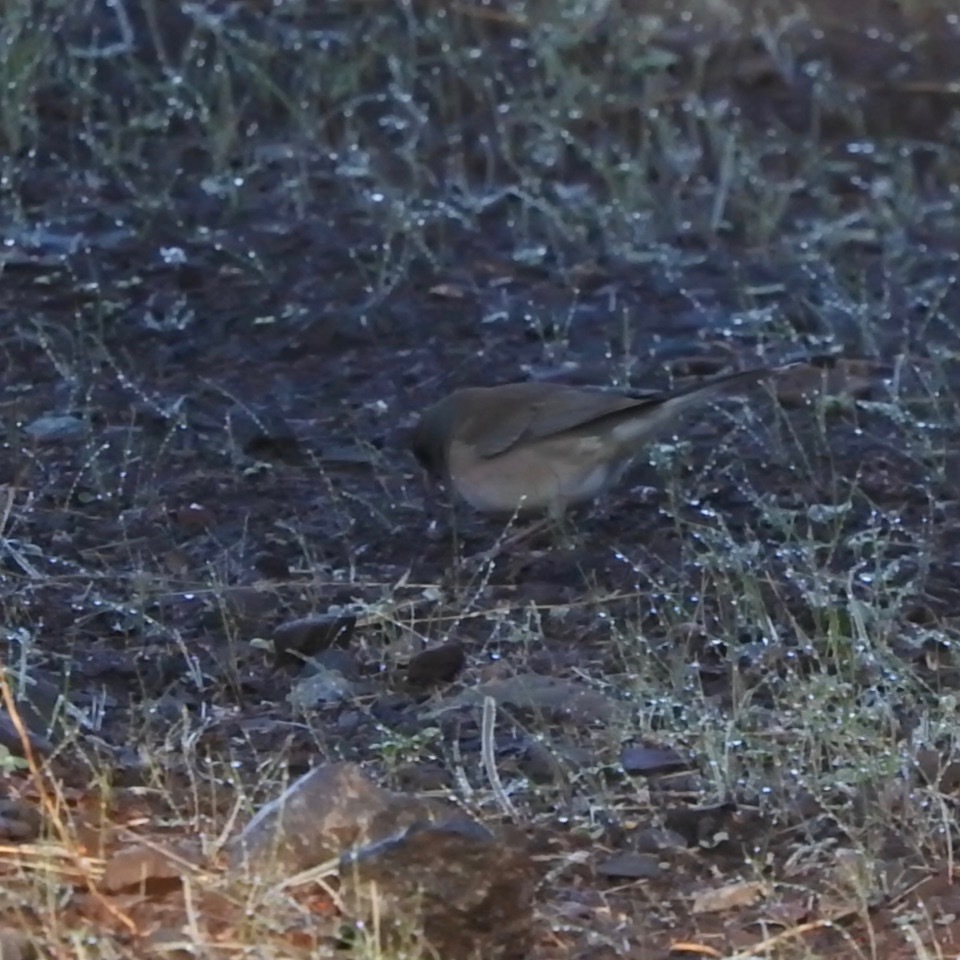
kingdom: Animalia
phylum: Chordata
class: Aves
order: Passeriformes
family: Passerellidae
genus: Junco
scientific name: Junco hyemalis
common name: Dark-eyed junco
